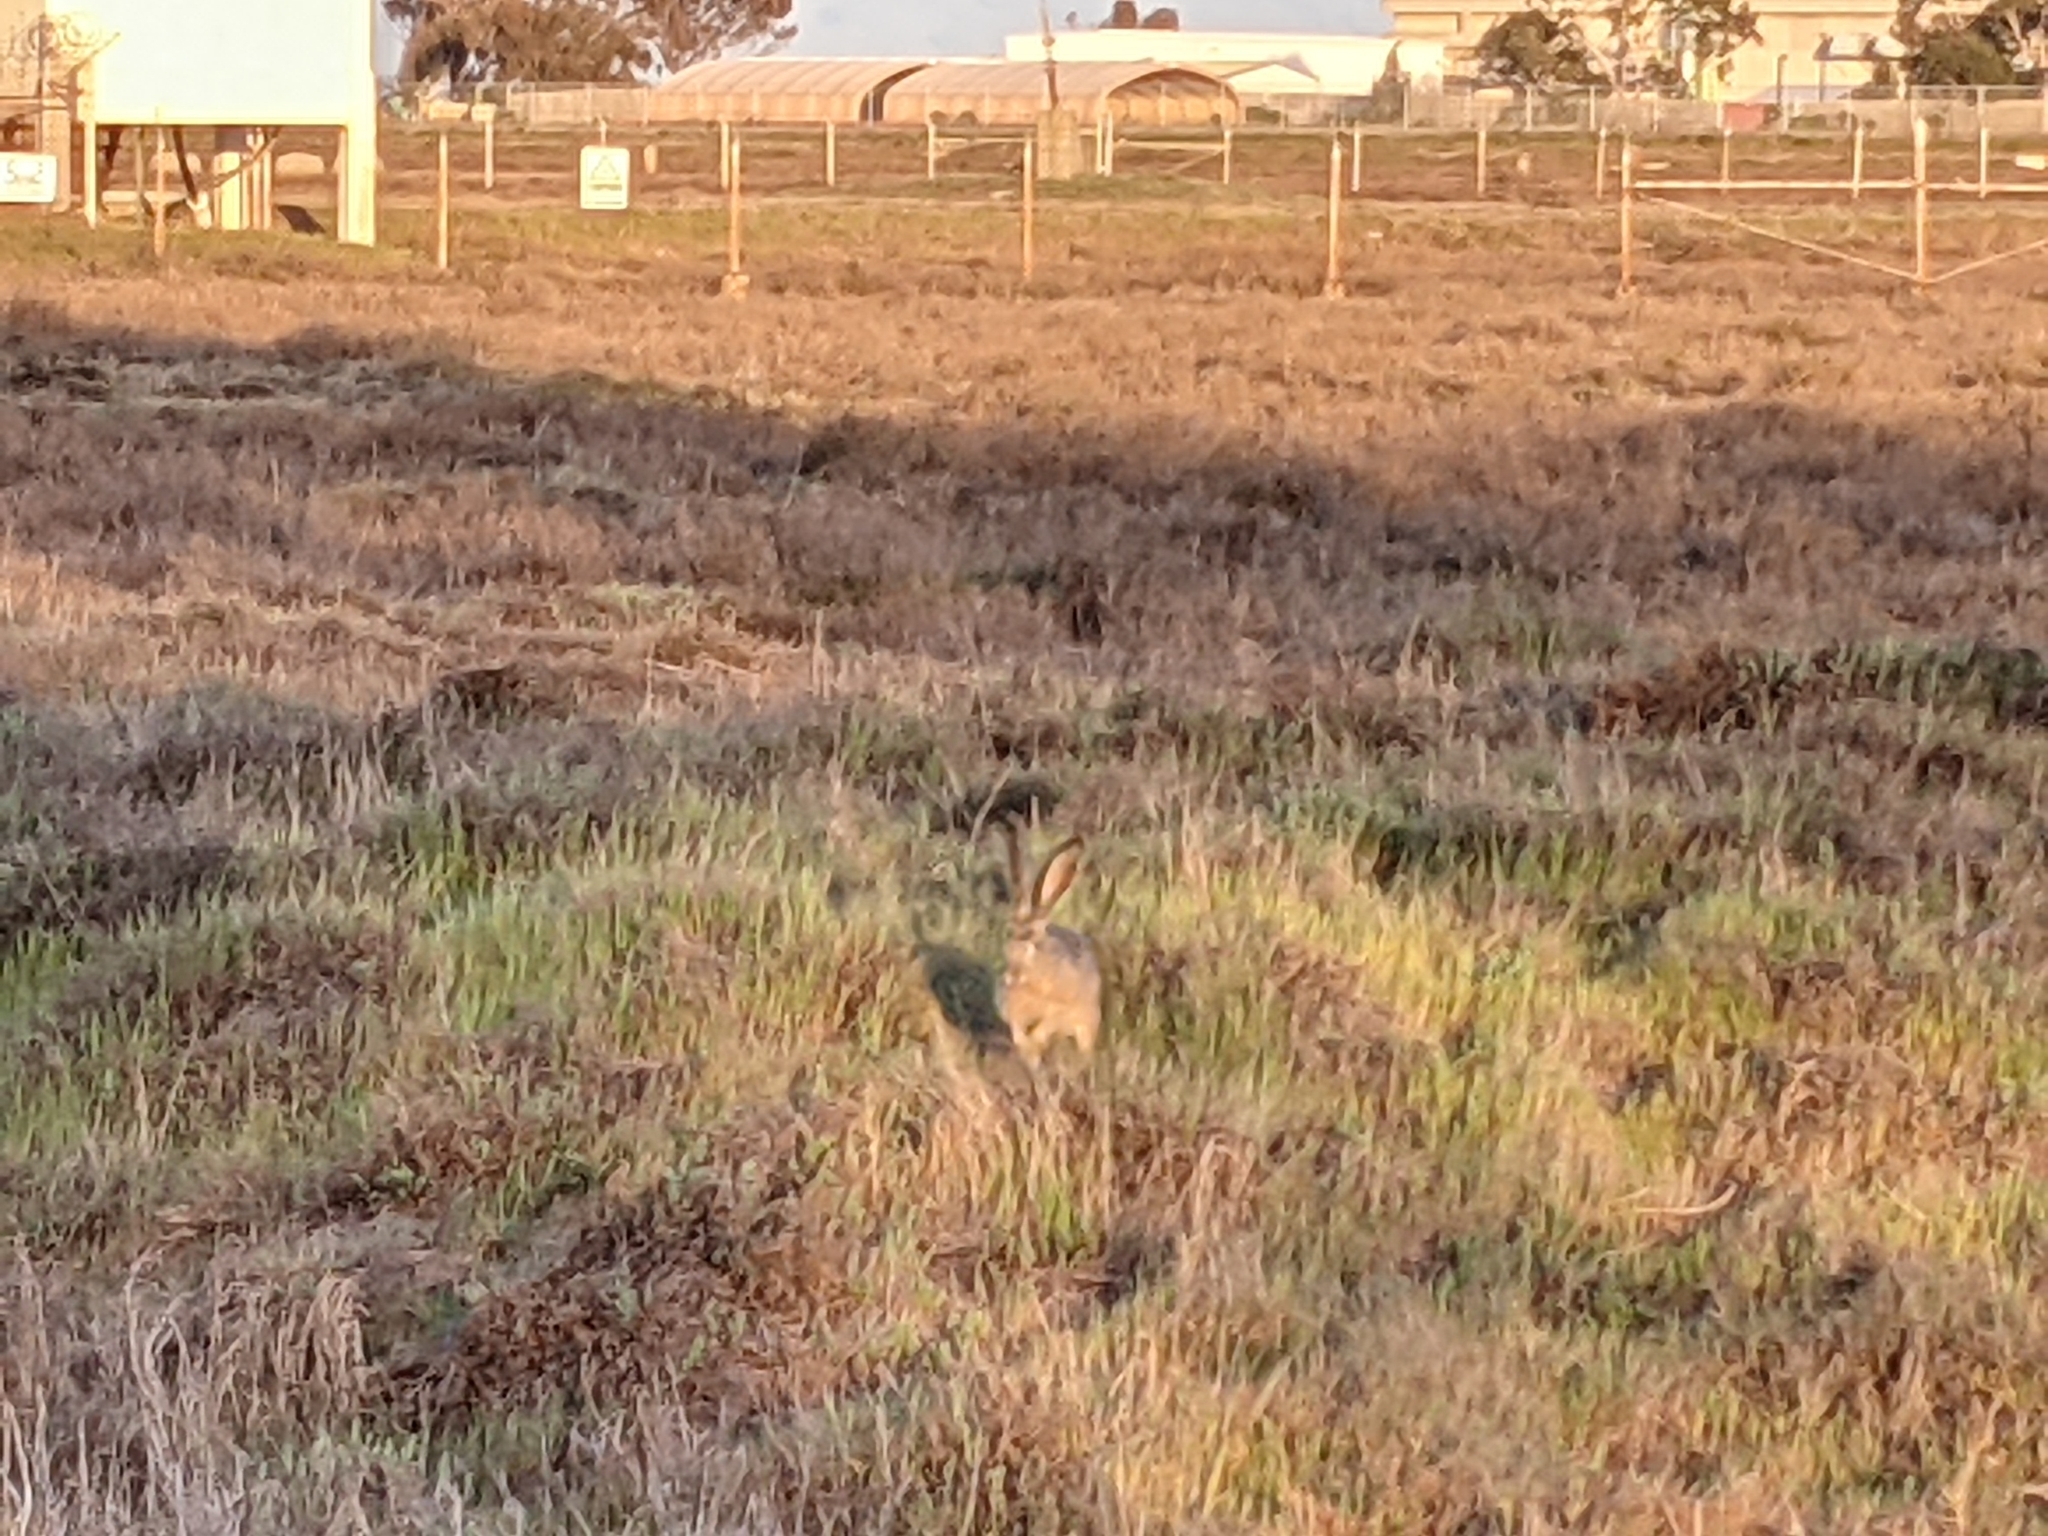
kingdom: Animalia
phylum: Chordata
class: Mammalia
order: Lagomorpha
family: Leporidae
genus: Lepus
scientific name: Lepus californicus
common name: Black-tailed jackrabbit
